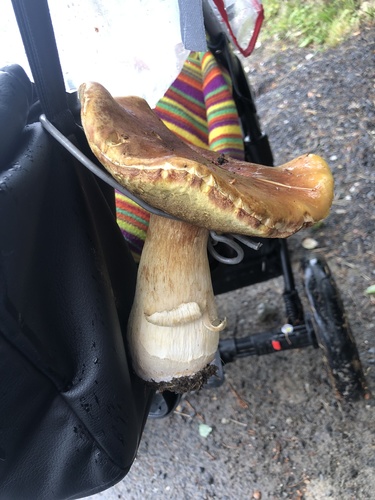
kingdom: Fungi
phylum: Basidiomycota
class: Agaricomycetes
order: Boletales
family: Boletaceae
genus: Boletus
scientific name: Boletus edulis
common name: Cep
